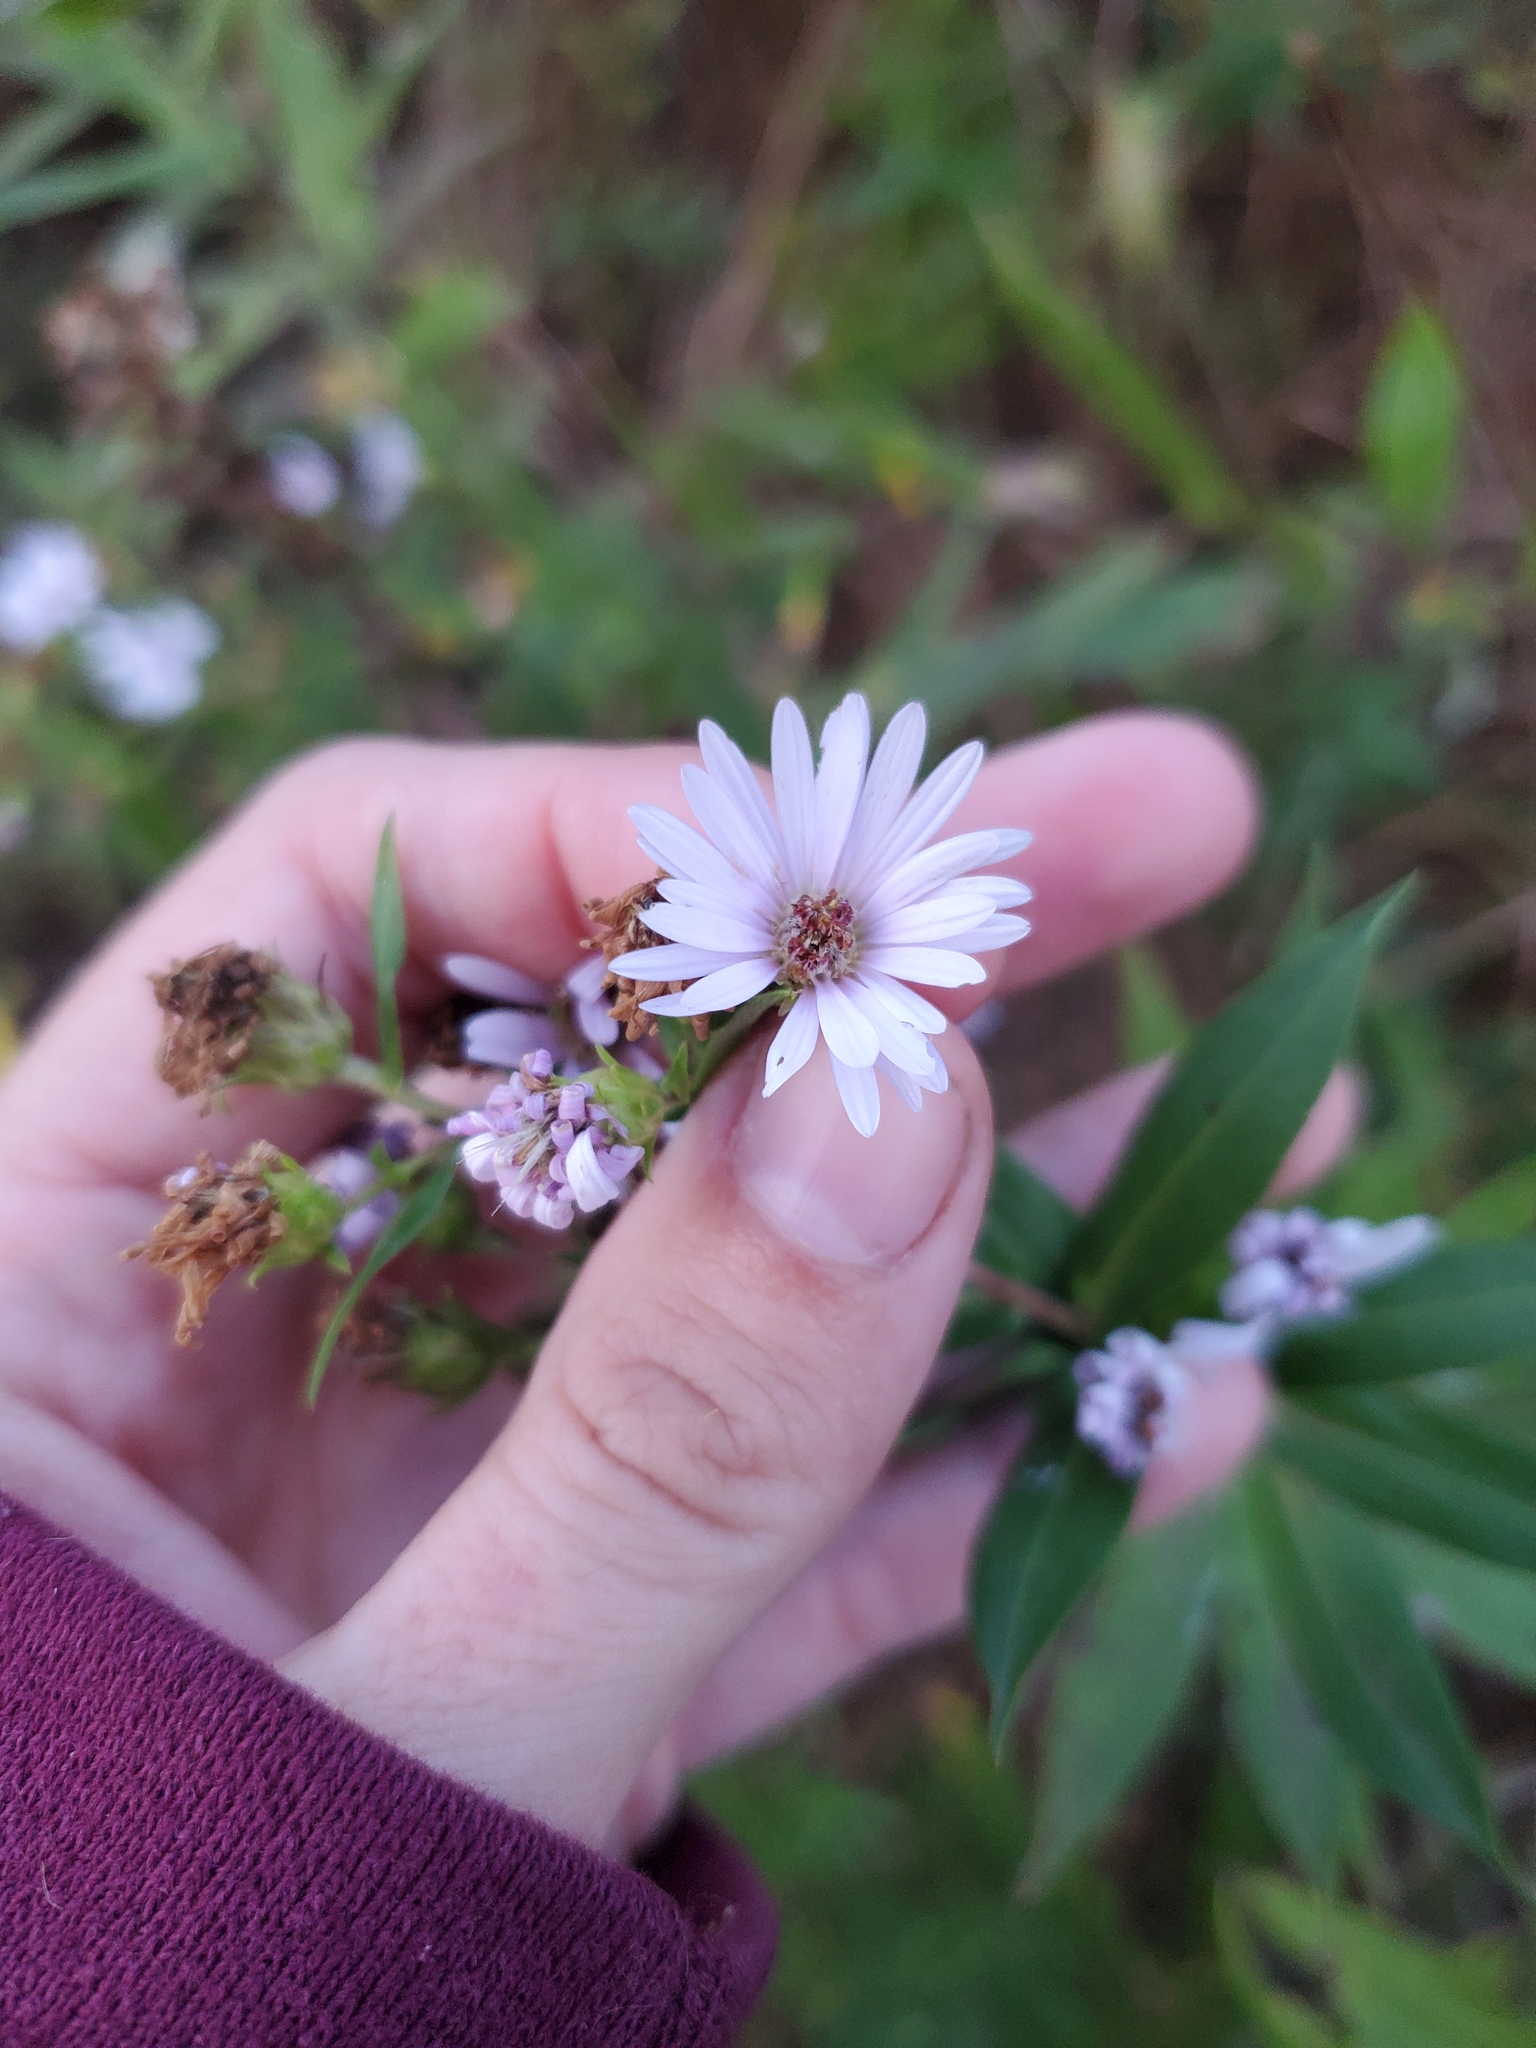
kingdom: Plantae
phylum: Tracheophyta
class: Magnoliopsida
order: Asterales
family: Asteraceae
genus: Symphyotrichum
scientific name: Symphyotrichum praealtum
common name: Willow aster
